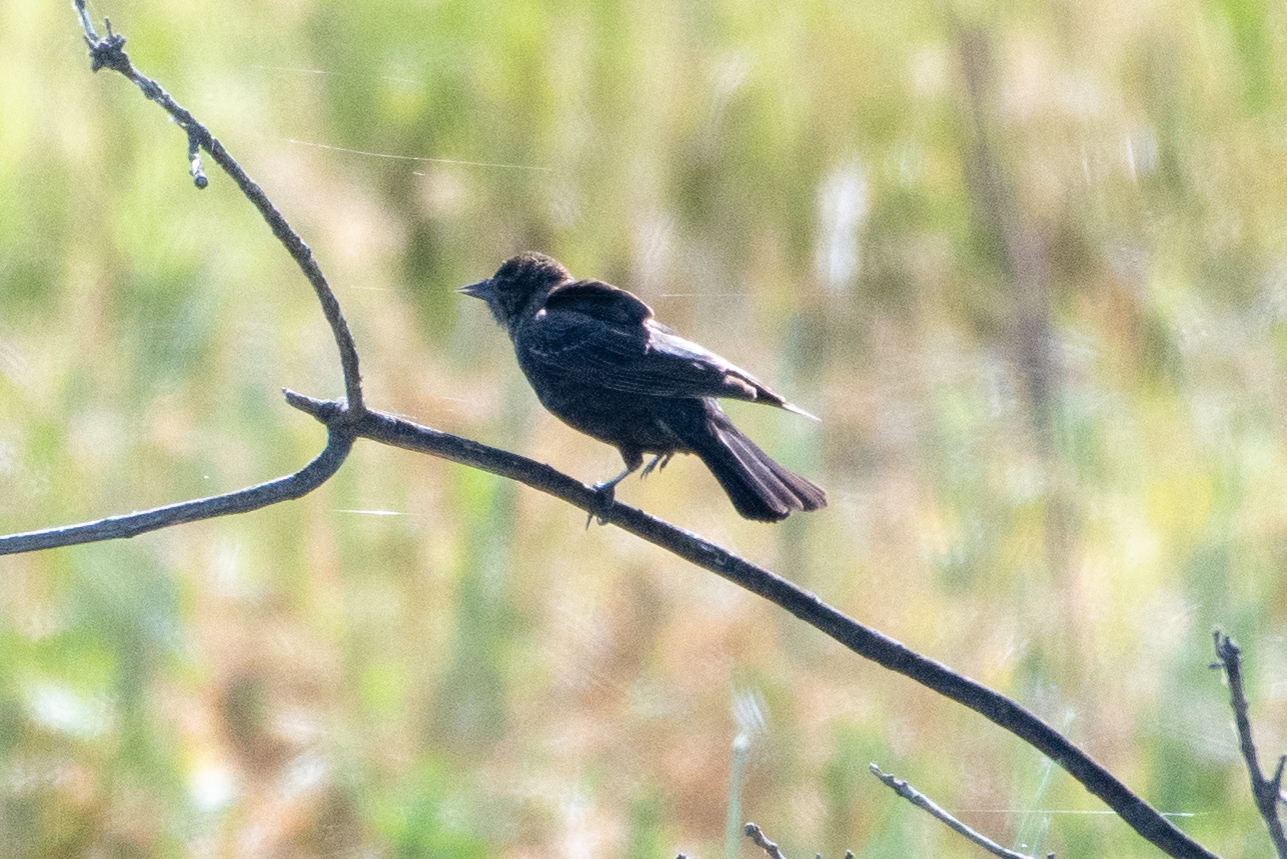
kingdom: Animalia
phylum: Chordata
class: Aves
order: Passeriformes
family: Icteridae
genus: Molothrus
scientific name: Molothrus ater
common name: Brown-headed cowbird
